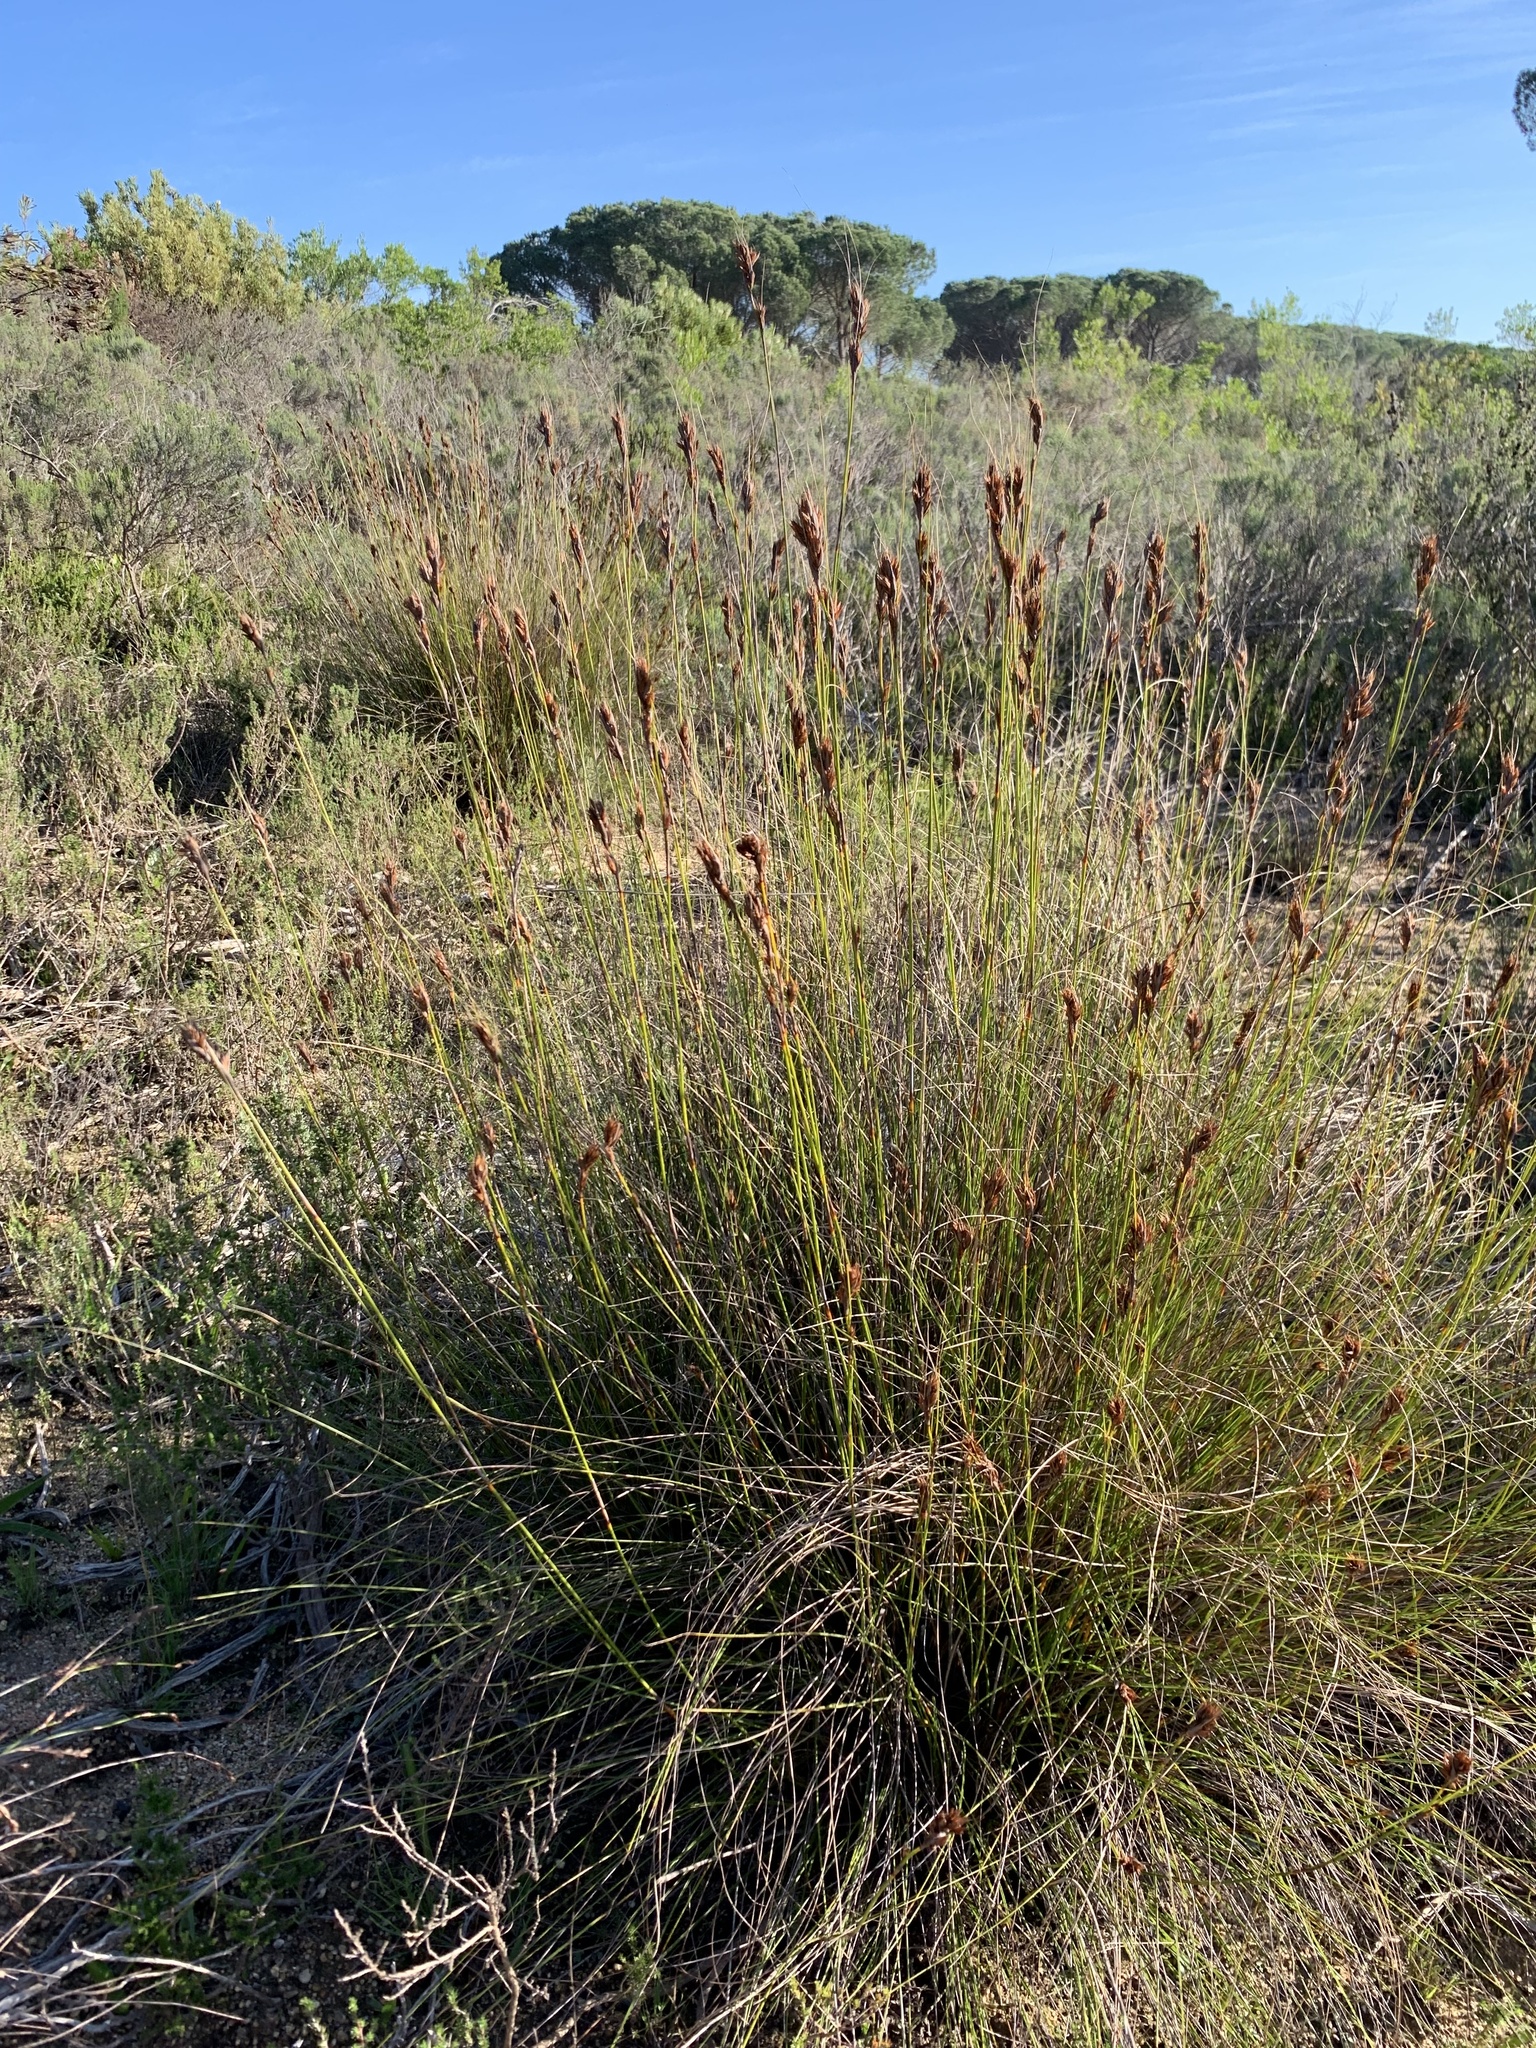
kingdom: Plantae
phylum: Tracheophyta
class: Liliopsida
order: Poales
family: Cyperaceae
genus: Tetraria
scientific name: Tetraria ustulata
